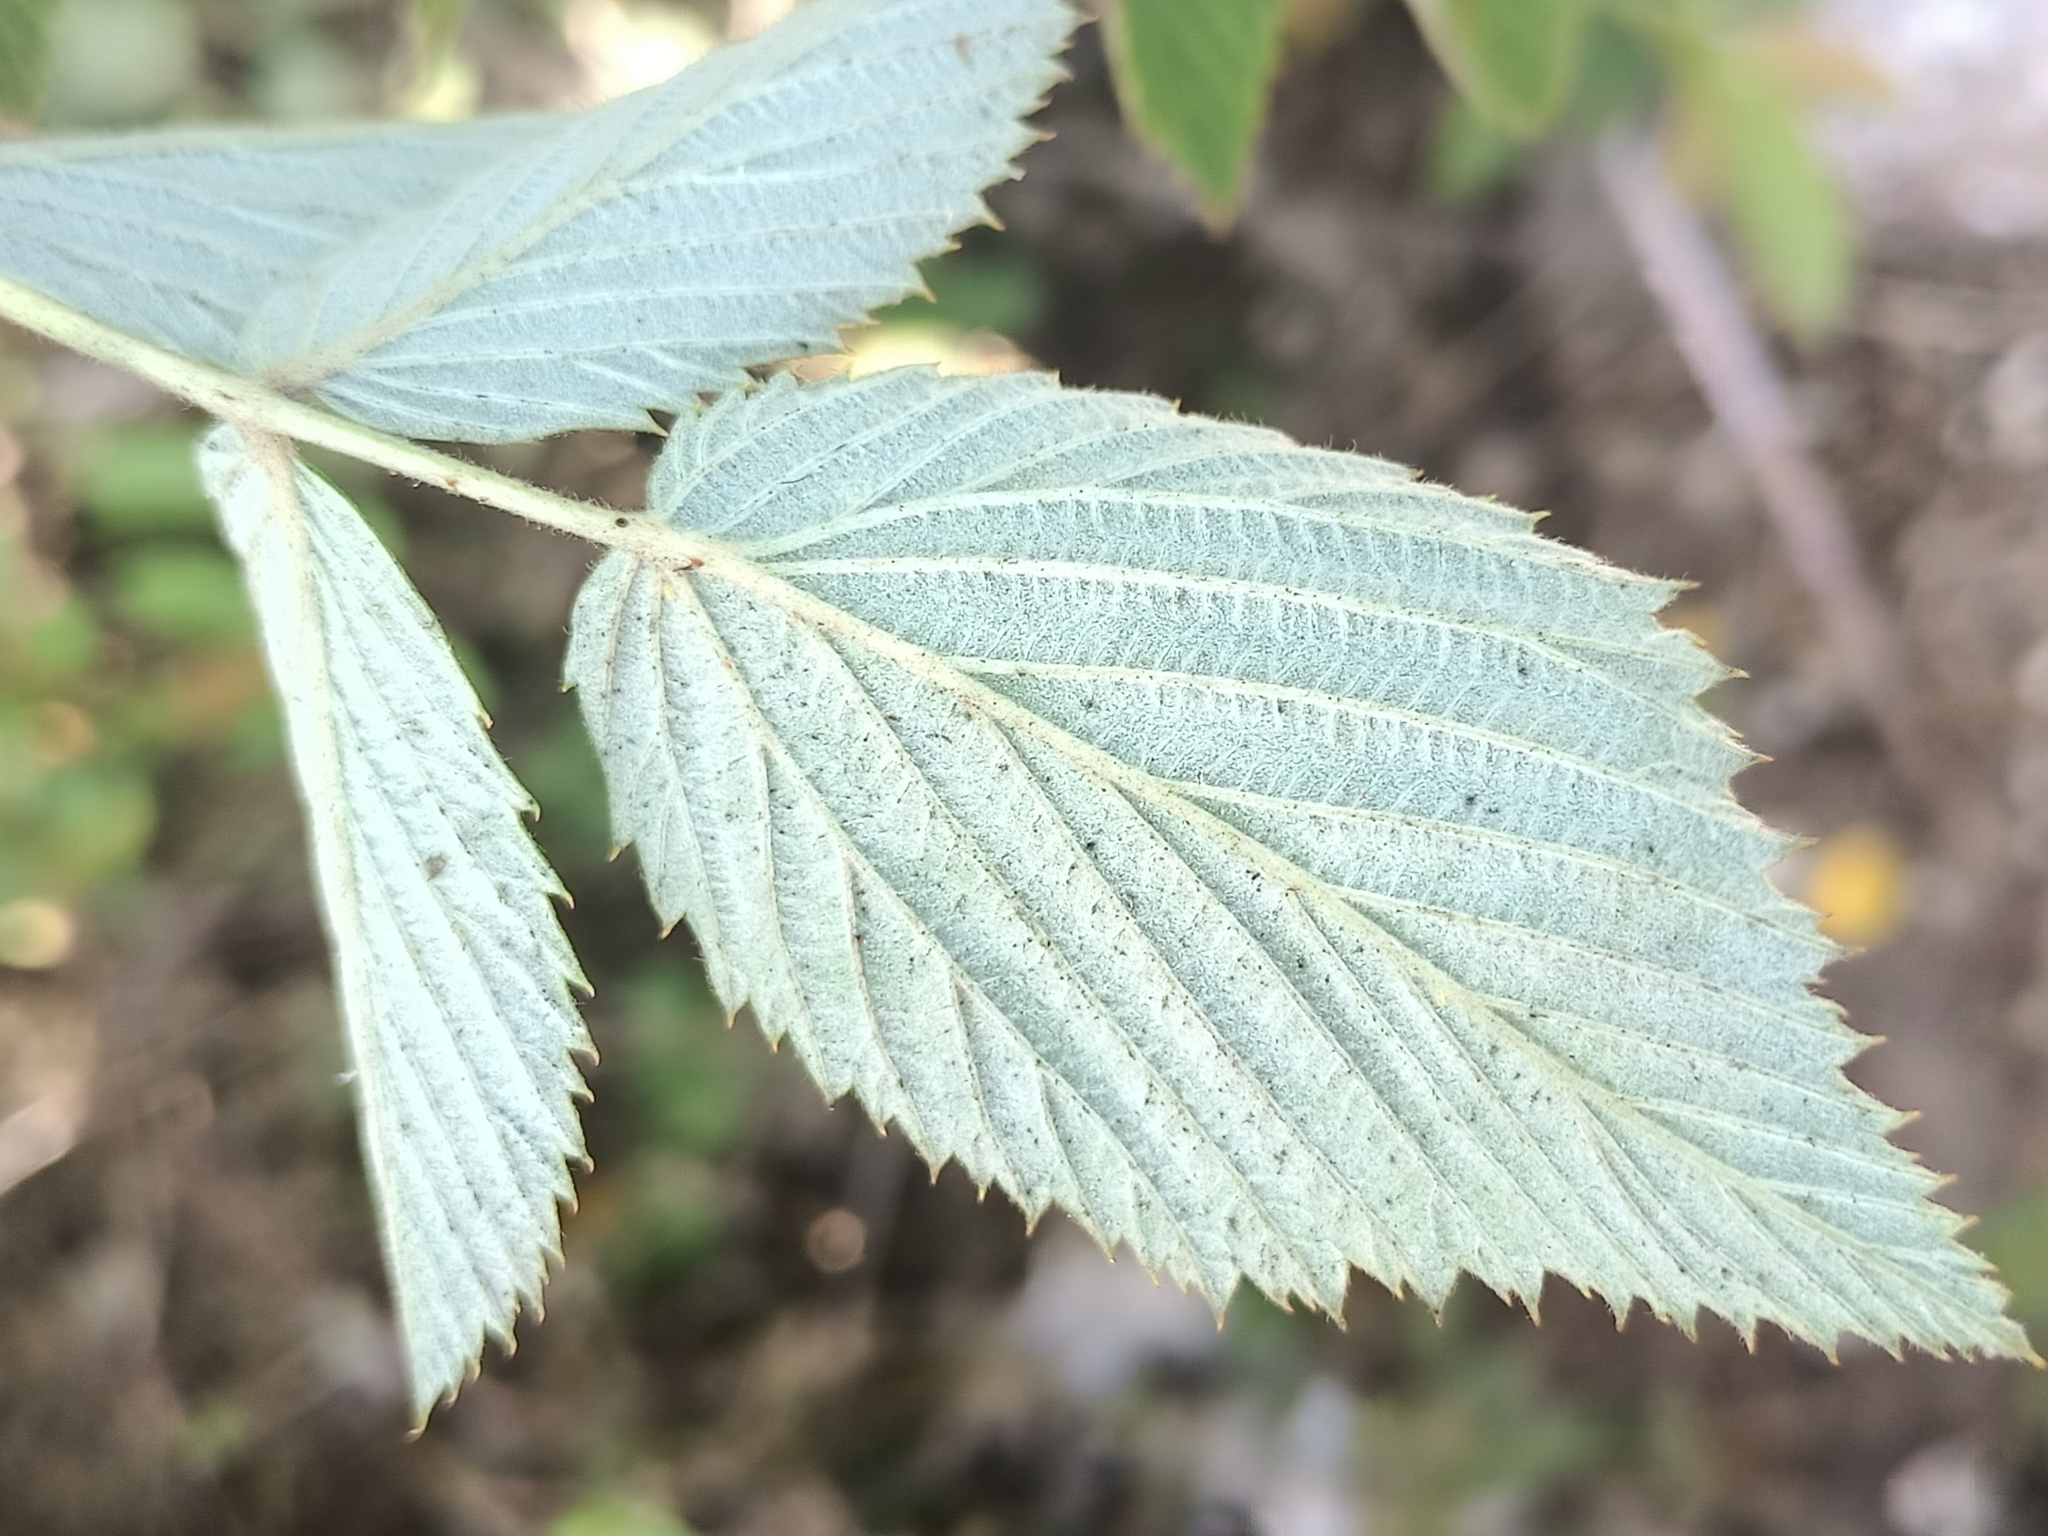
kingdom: Plantae
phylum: Tracheophyta
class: Magnoliopsida
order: Rosales
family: Rosaceae
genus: Rubus
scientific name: Rubus niveus
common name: Snowpeaks raspberry
